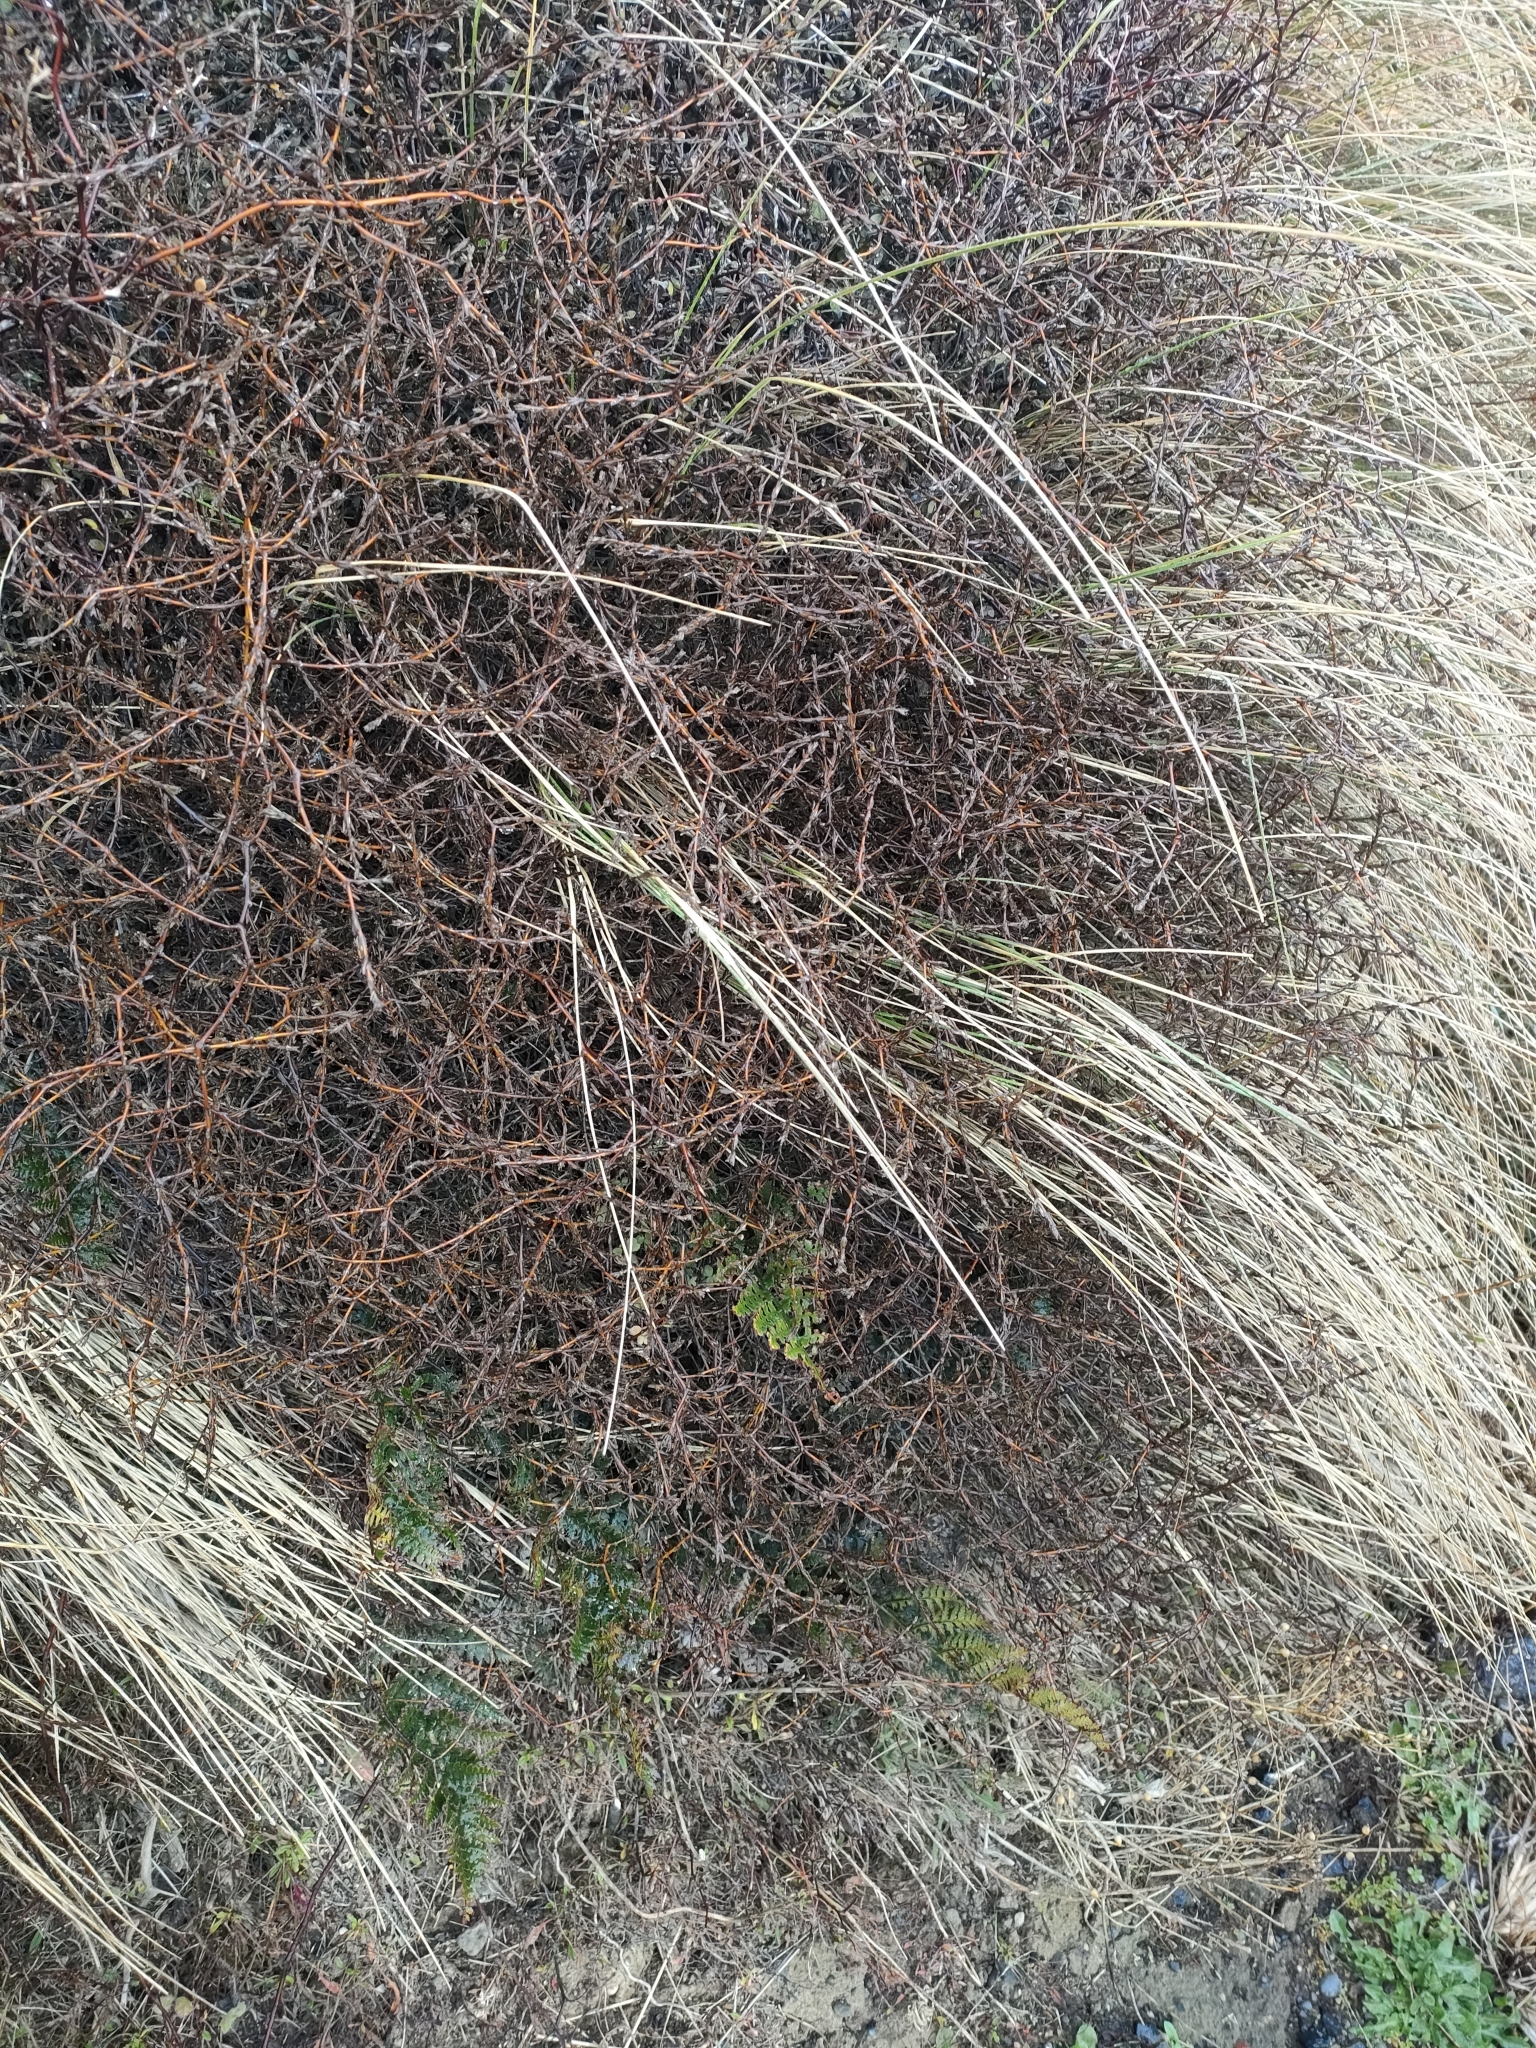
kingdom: Plantae
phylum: Tracheophyta
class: Magnoliopsida
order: Gentianales
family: Rubiaceae
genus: Coprosma
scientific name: Coprosma acerosa
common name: Sand coprosma
